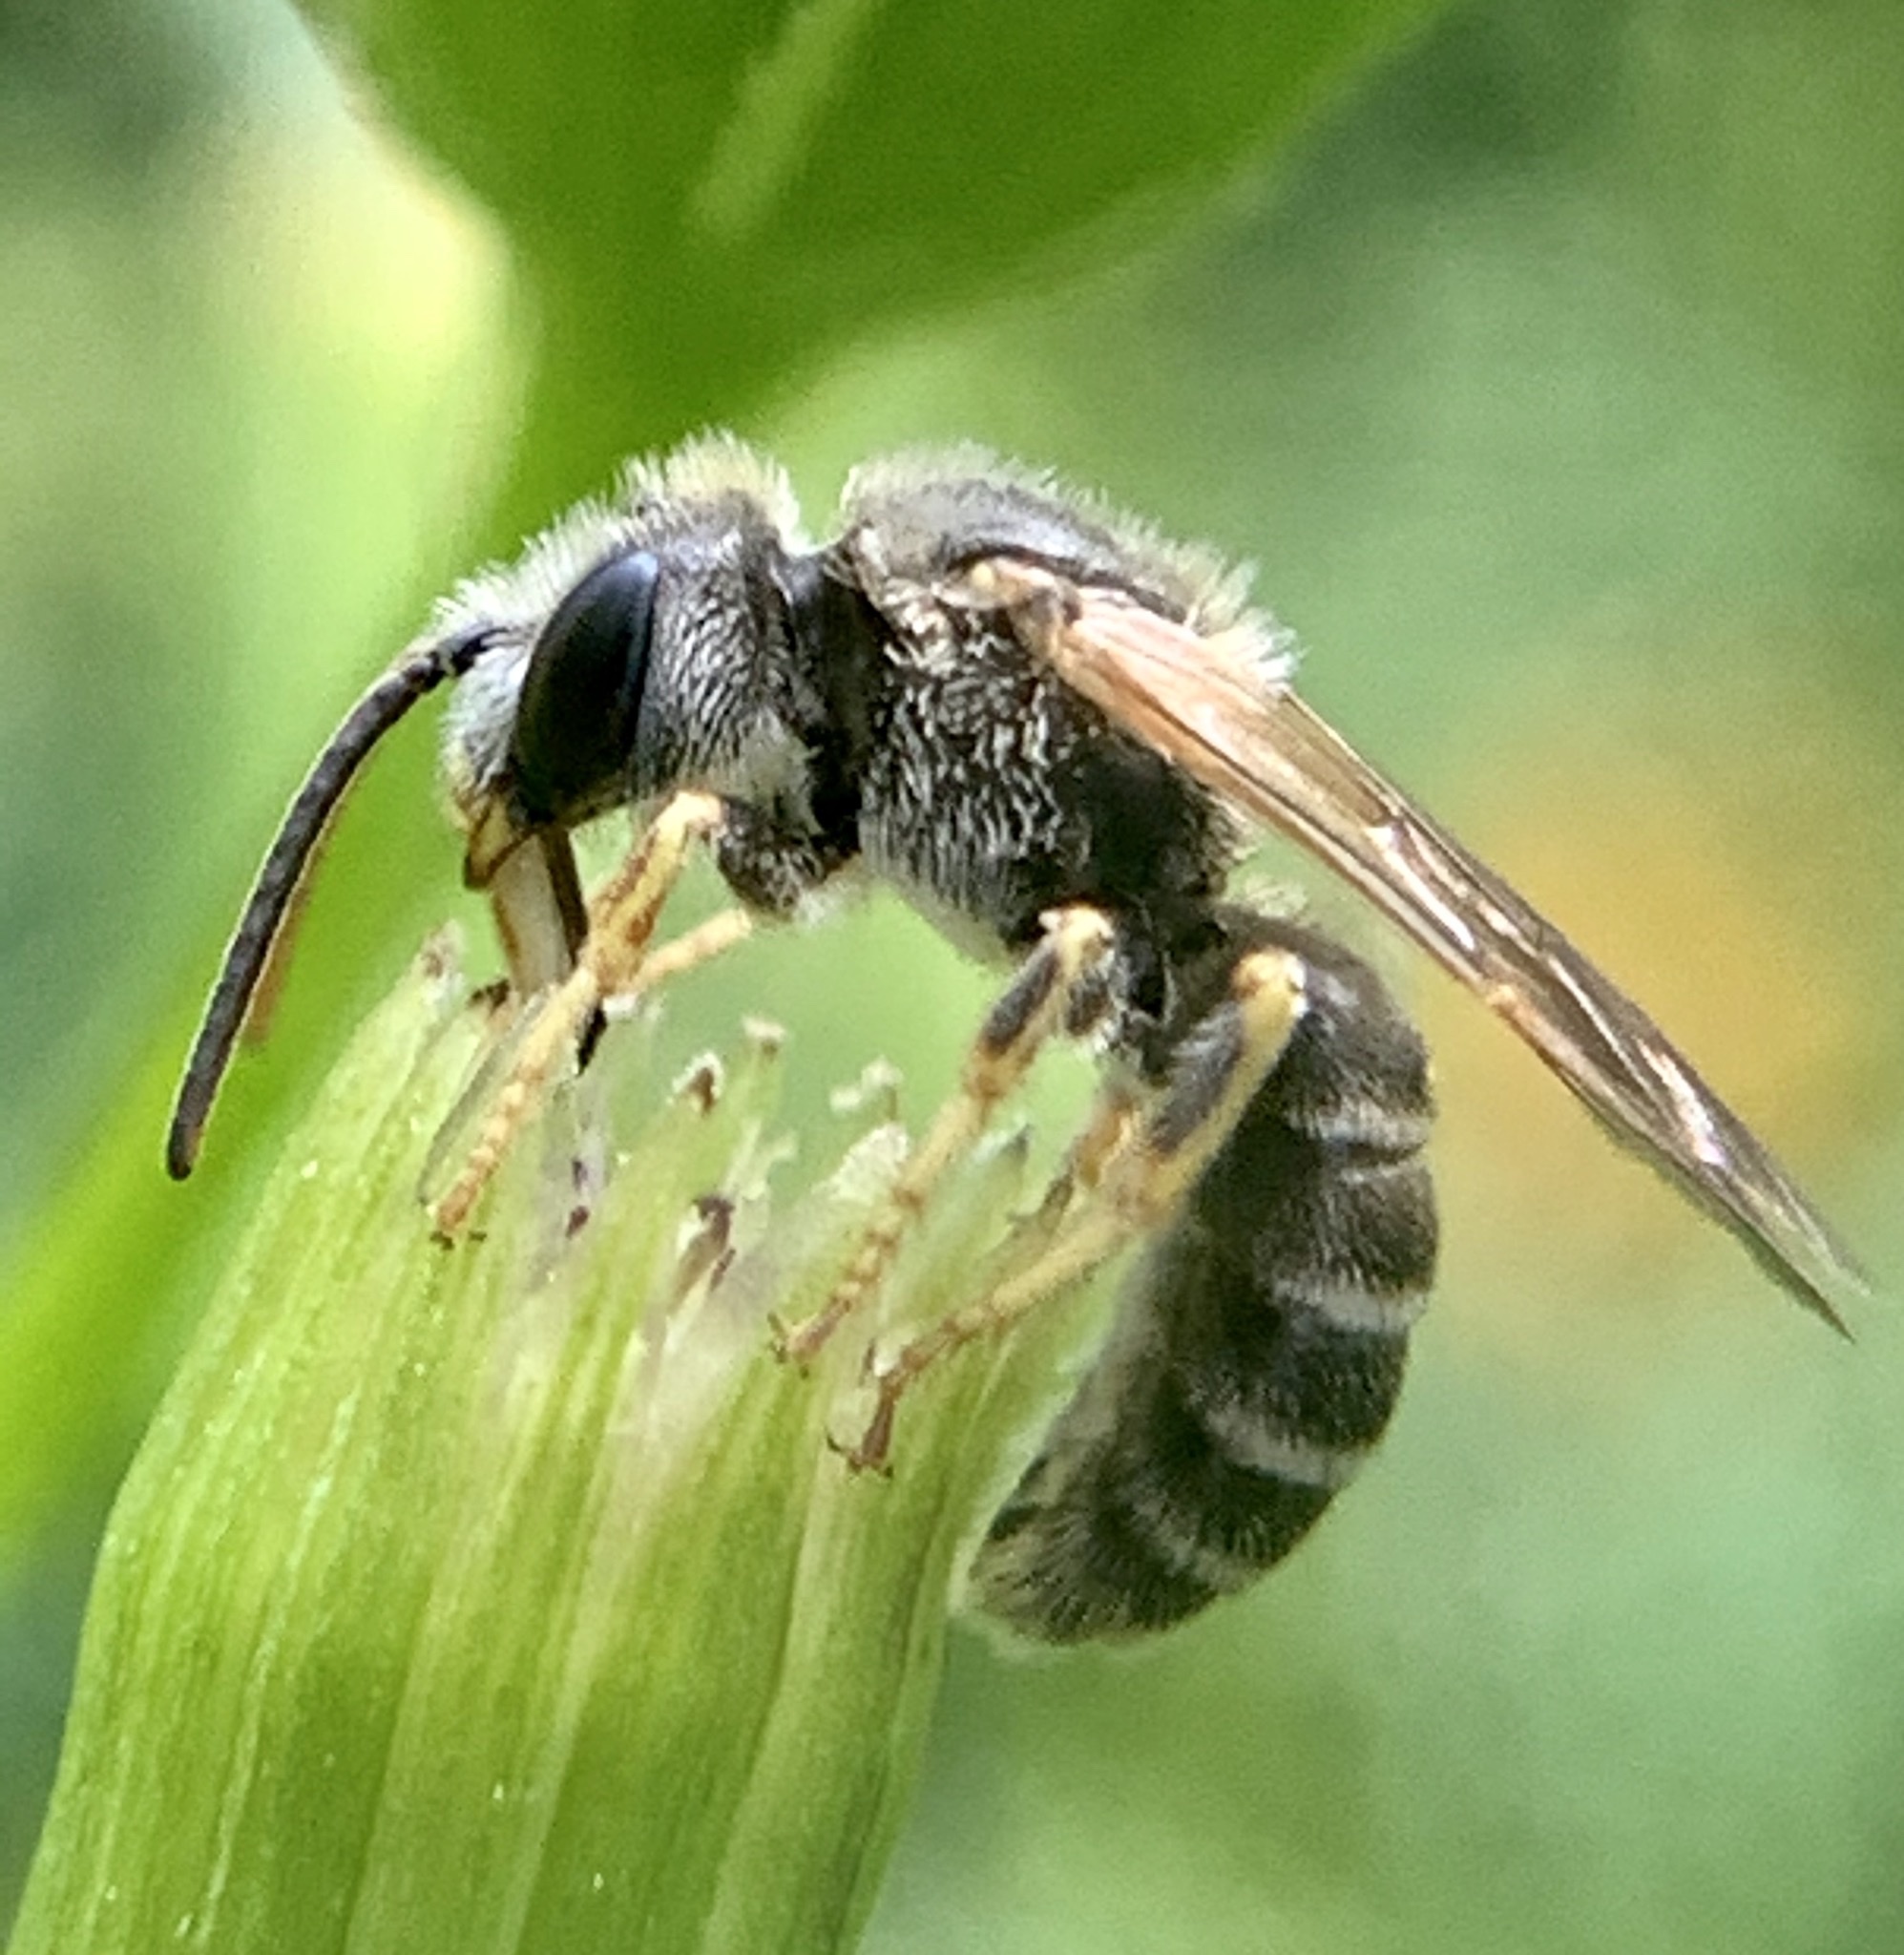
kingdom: Animalia
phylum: Arthropoda
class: Insecta
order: Hymenoptera
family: Halictidae
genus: Halictus
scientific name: Halictus ligatus
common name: Ligated furrow bee
